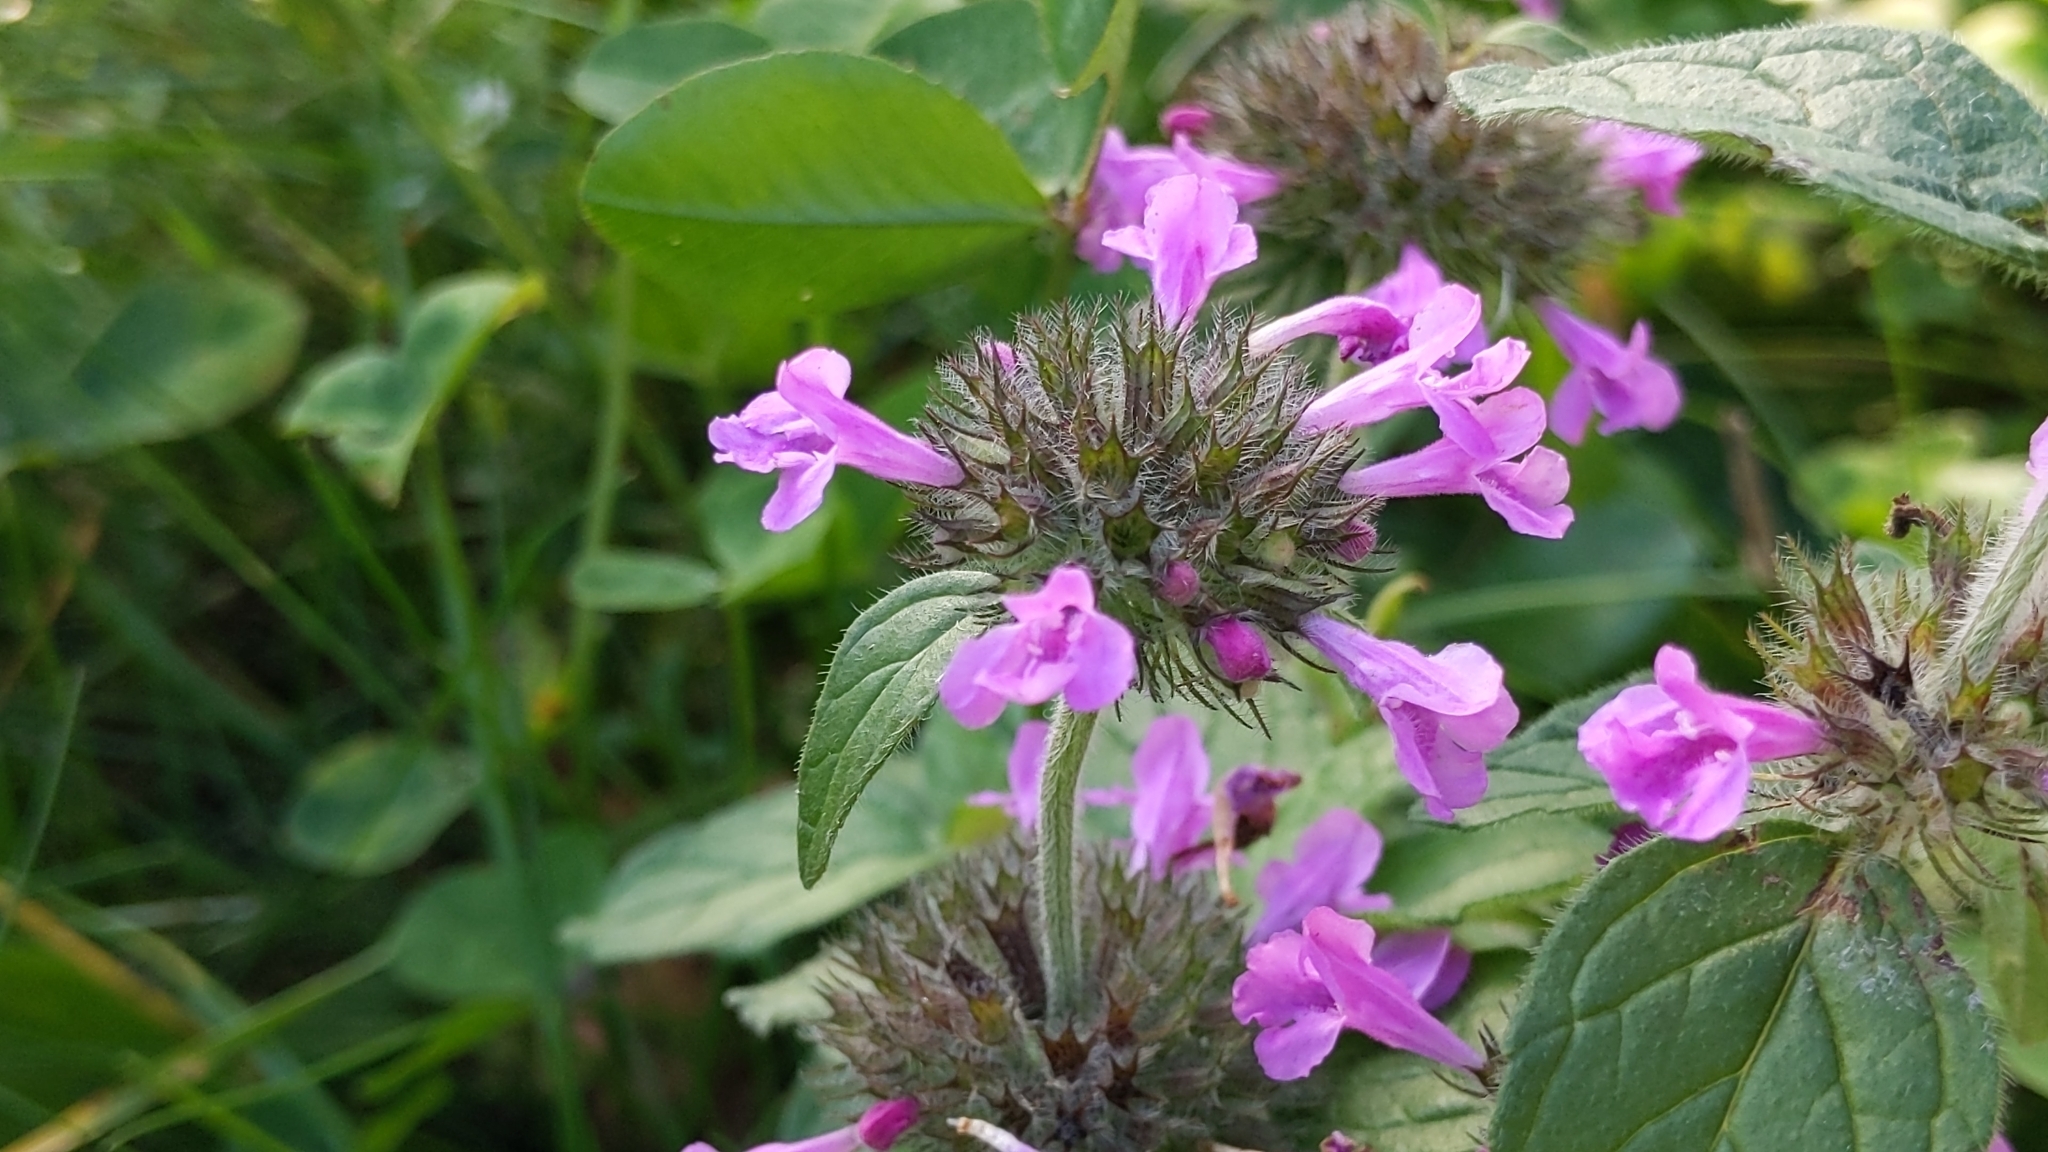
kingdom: Plantae
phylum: Tracheophyta
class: Magnoliopsida
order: Lamiales
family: Lamiaceae
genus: Clinopodium
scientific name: Clinopodium vulgare
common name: Wild basil
